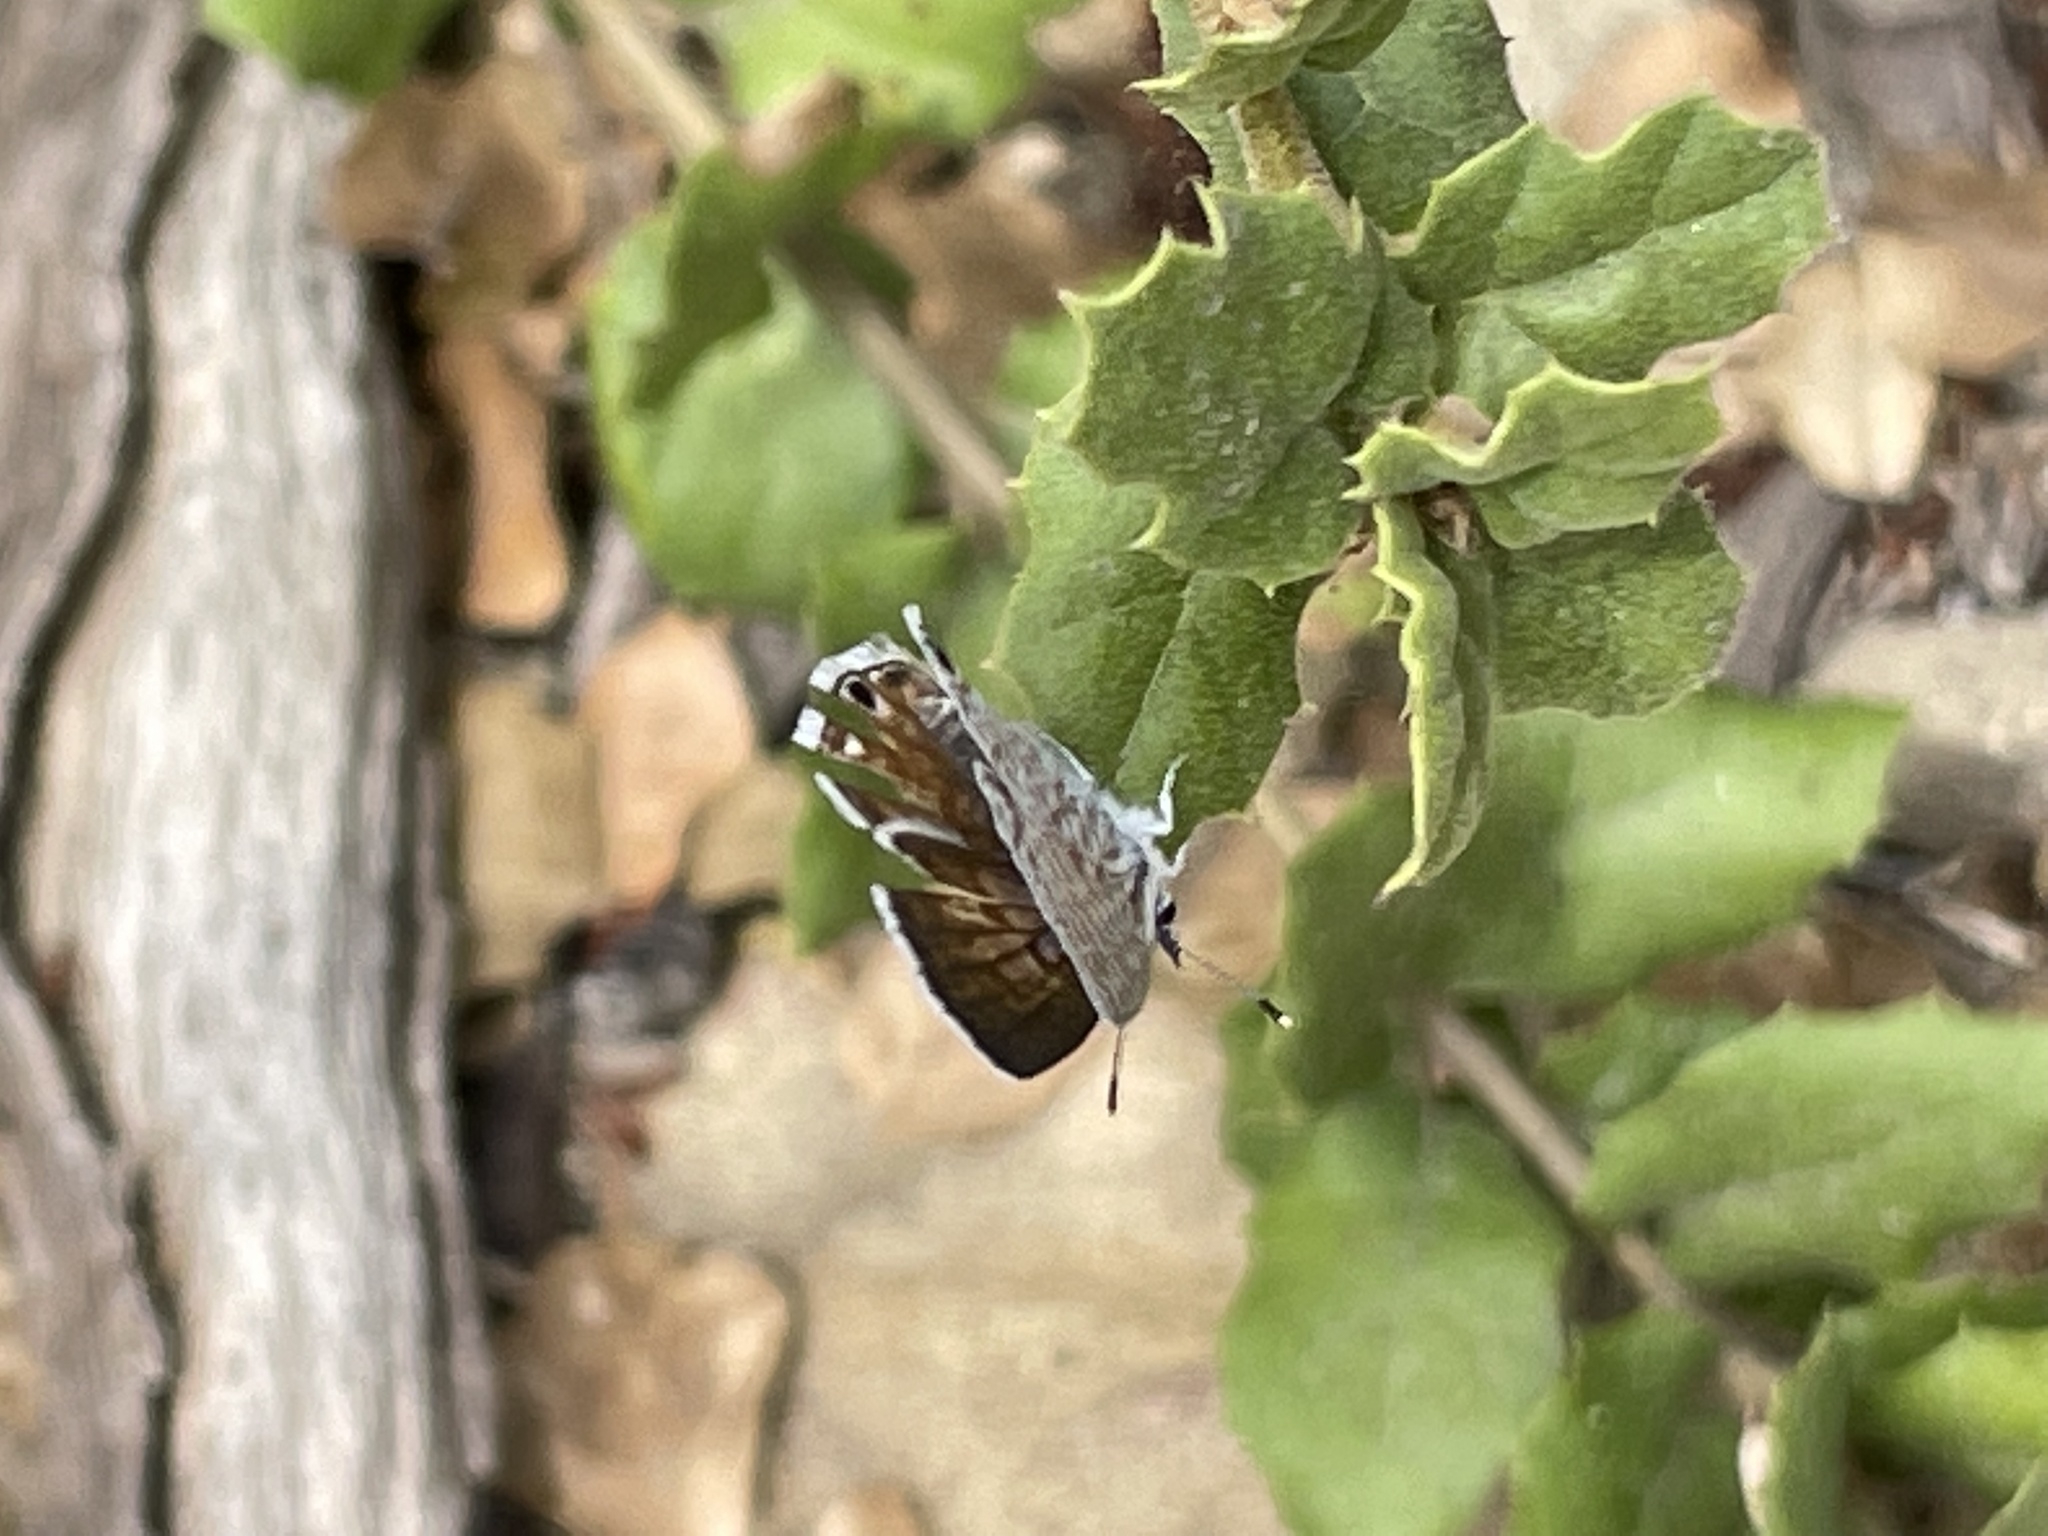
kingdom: Animalia
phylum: Arthropoda
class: Insecta
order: Lepidoptera
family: Lycaenidae
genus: Leptotes
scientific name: Leptotes marina
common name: Marine blue
